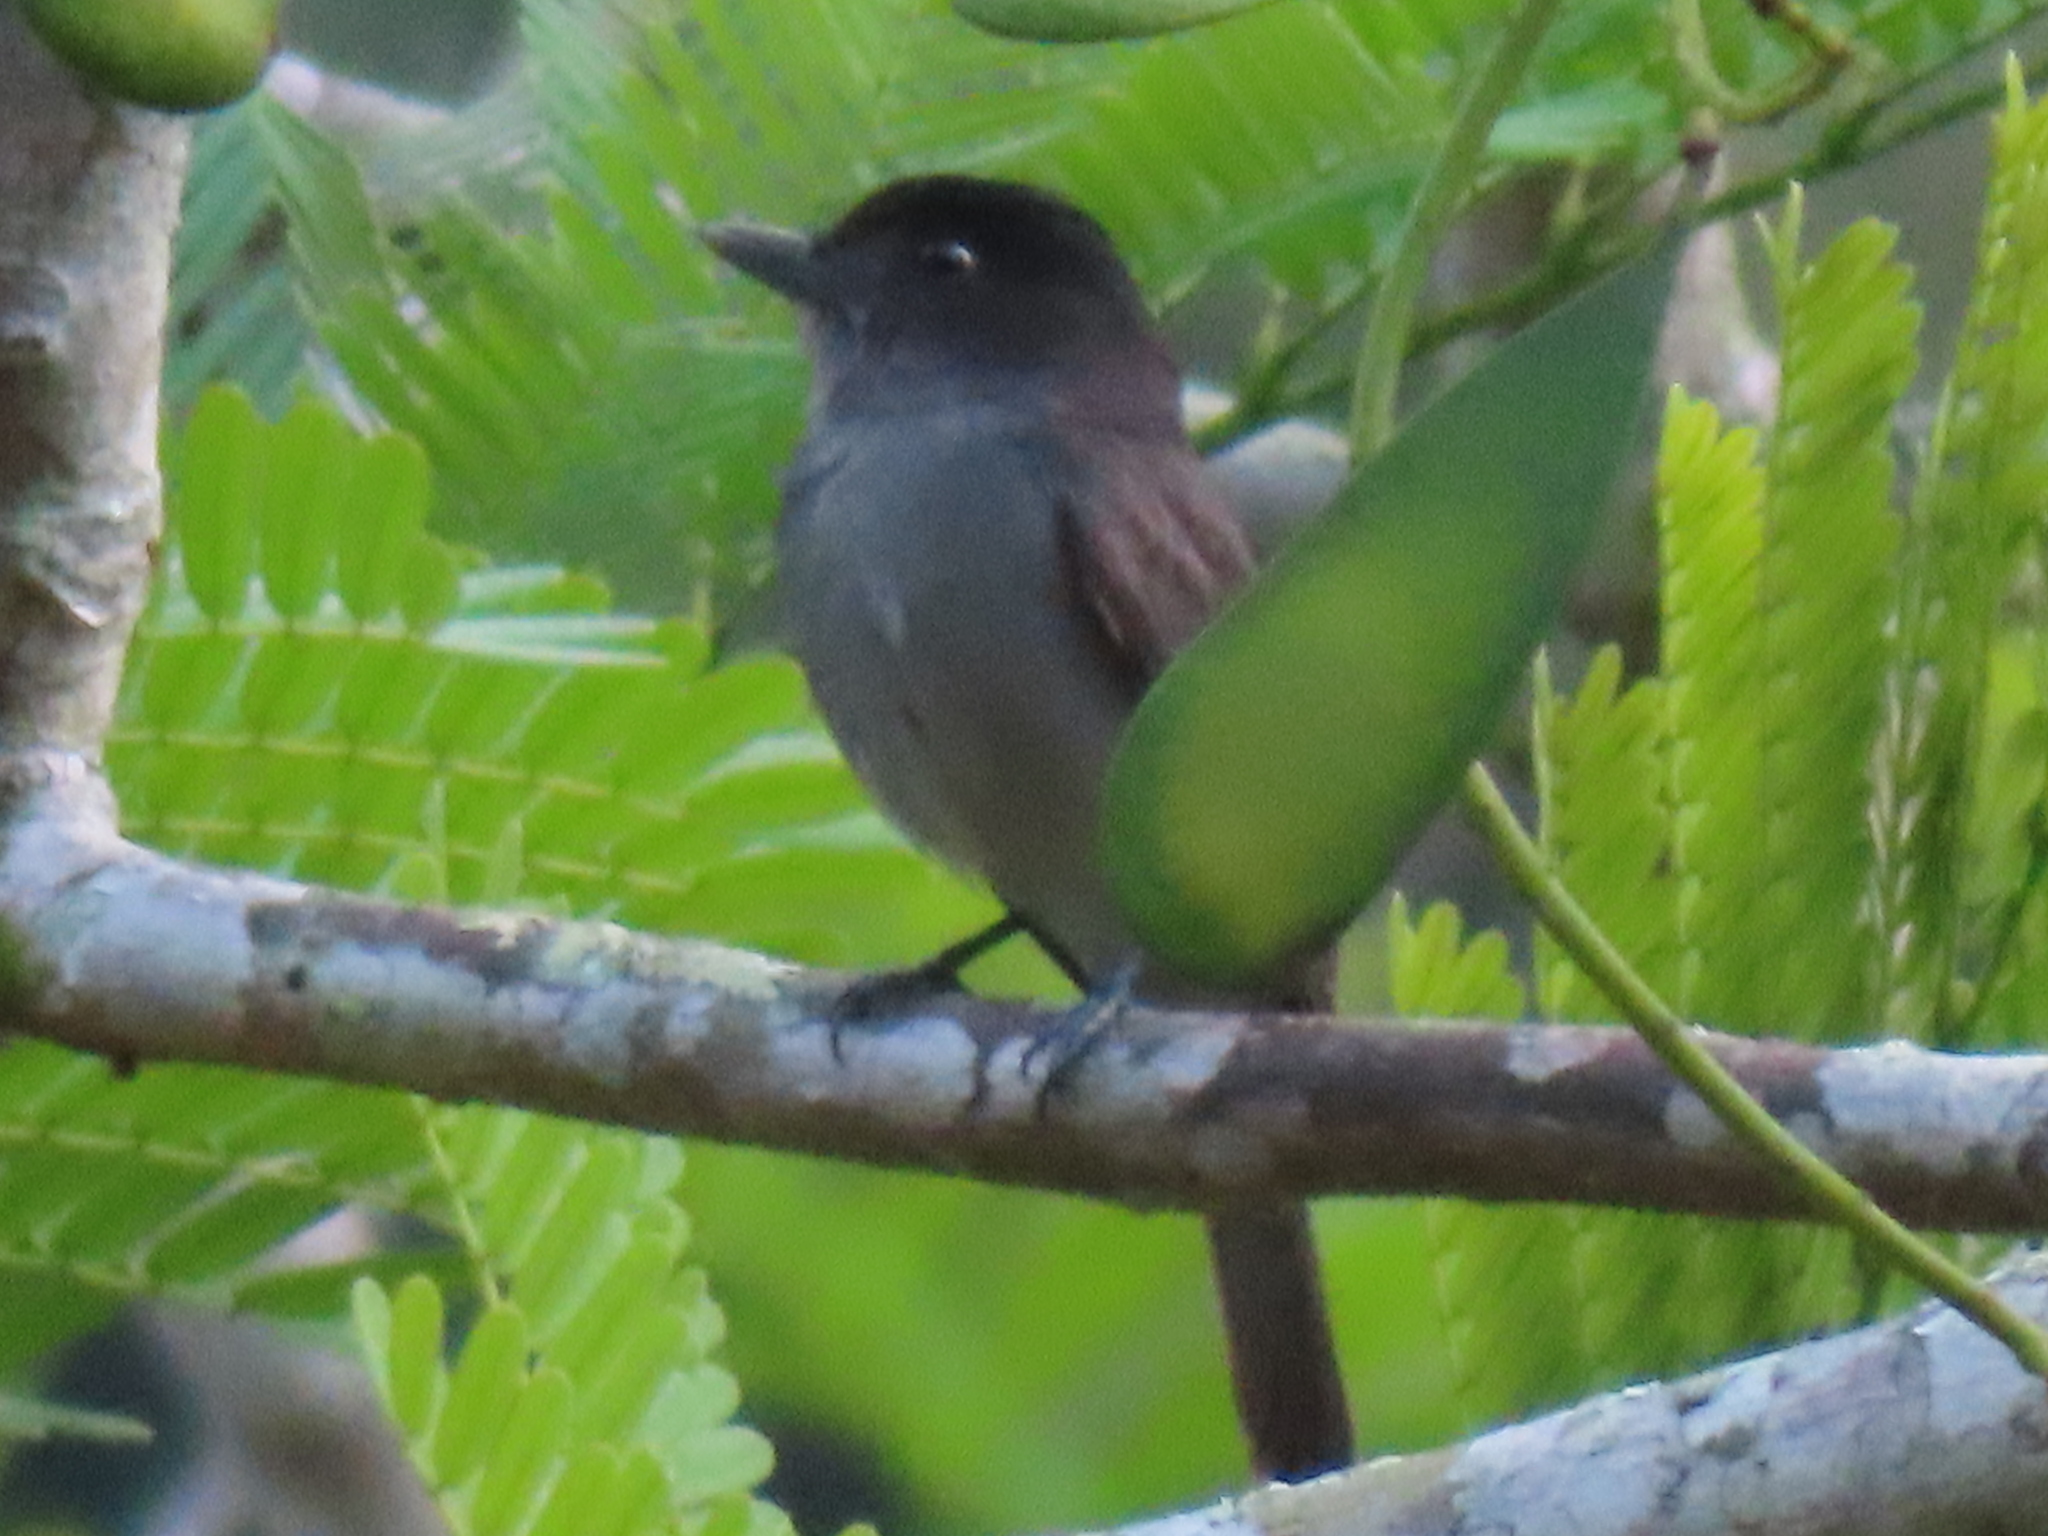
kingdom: Animalia
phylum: Chordata
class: Aves
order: Passeriformes
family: Cotingidae
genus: Pachyramphus
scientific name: Pachyramphus aglaiae
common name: Rose-throated becard
